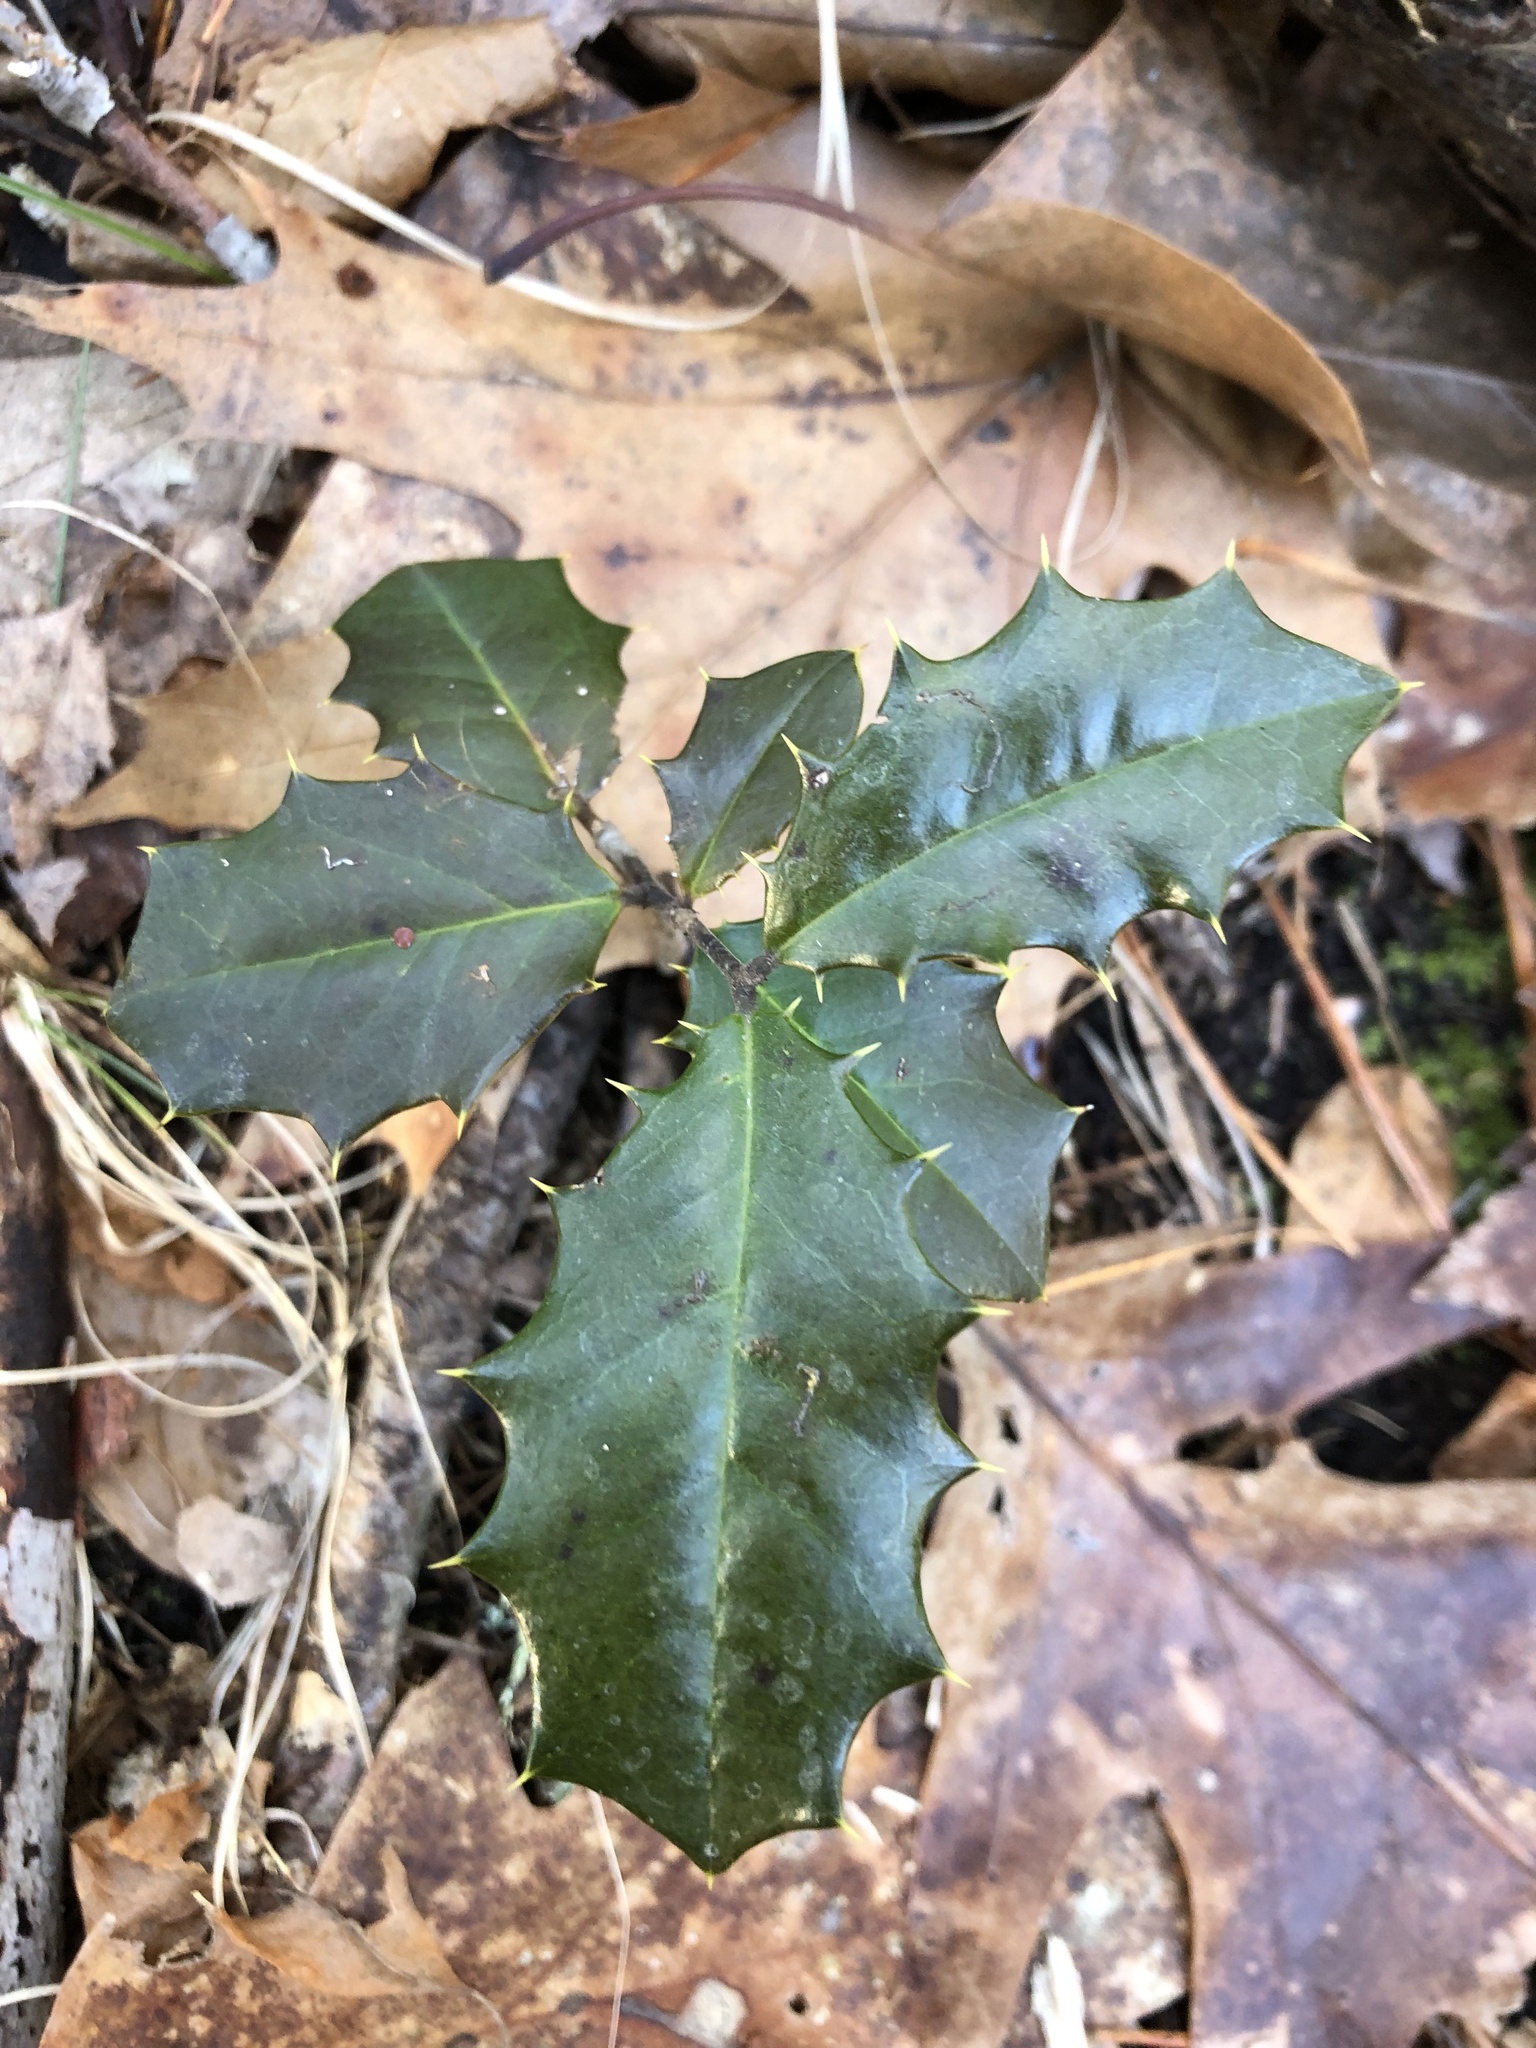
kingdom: Plantae
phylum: Tracheophyta
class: Magnoliopsida
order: Aquifoliales
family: Aquifoliaceae
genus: Ilex
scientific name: Ilex opaca
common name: American holly
